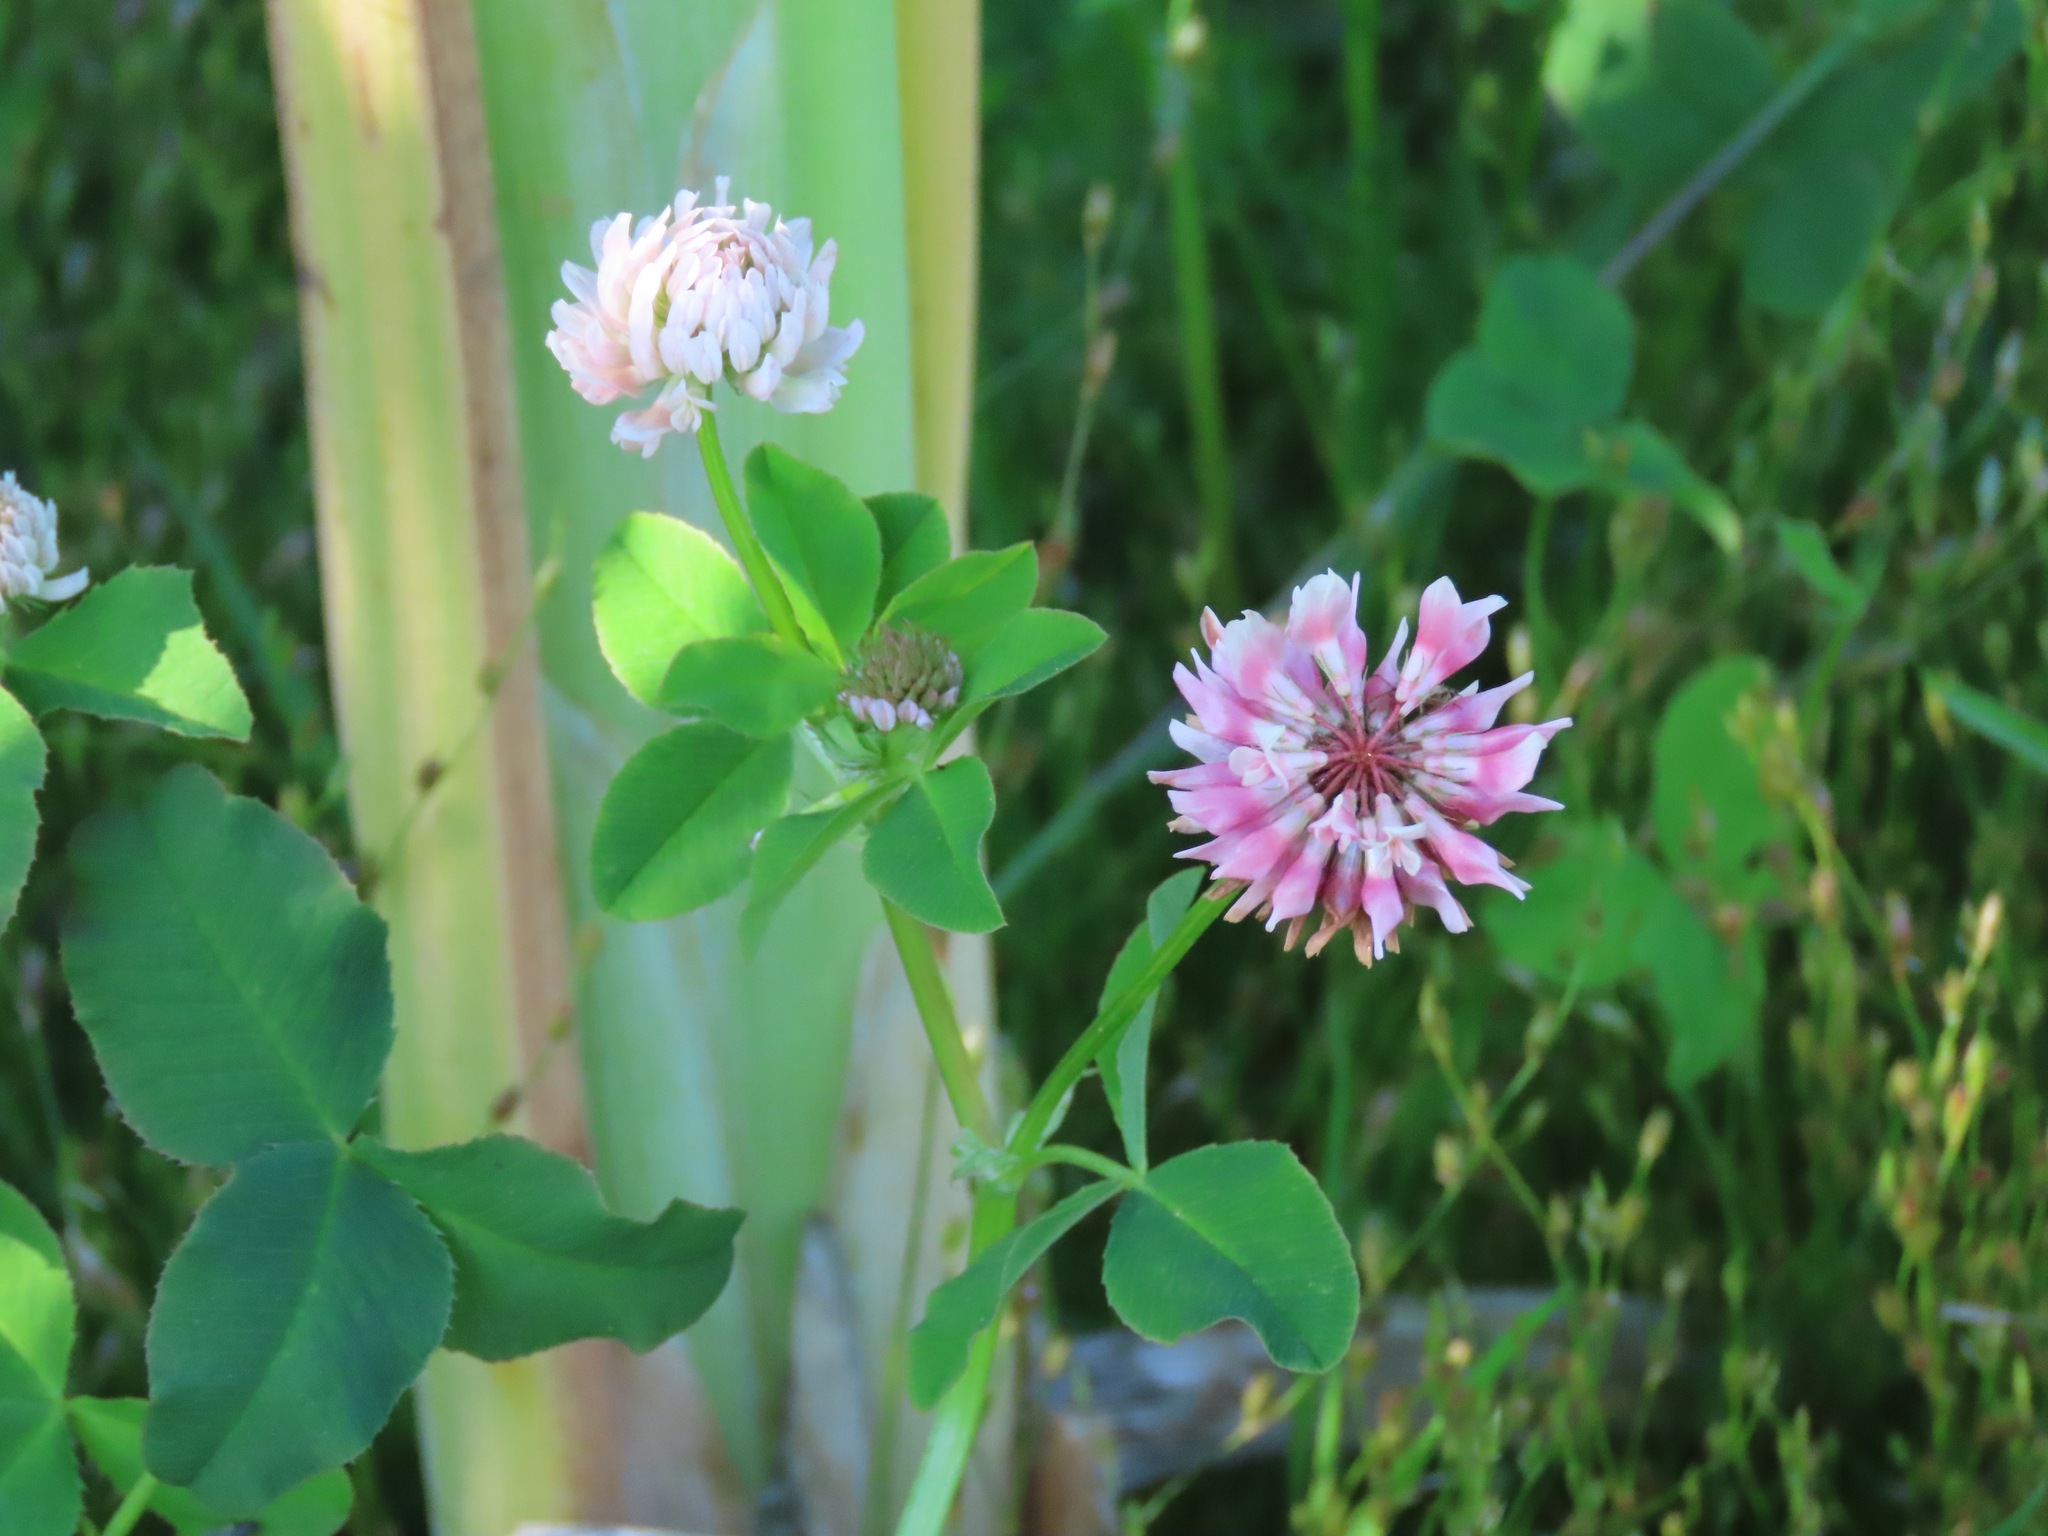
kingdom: Plantae
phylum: Tracheophyta
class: Magnoliopsida
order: Fabales
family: Fabaceae
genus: Trifolium
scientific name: Trifolium hybridum
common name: Alsike clover
